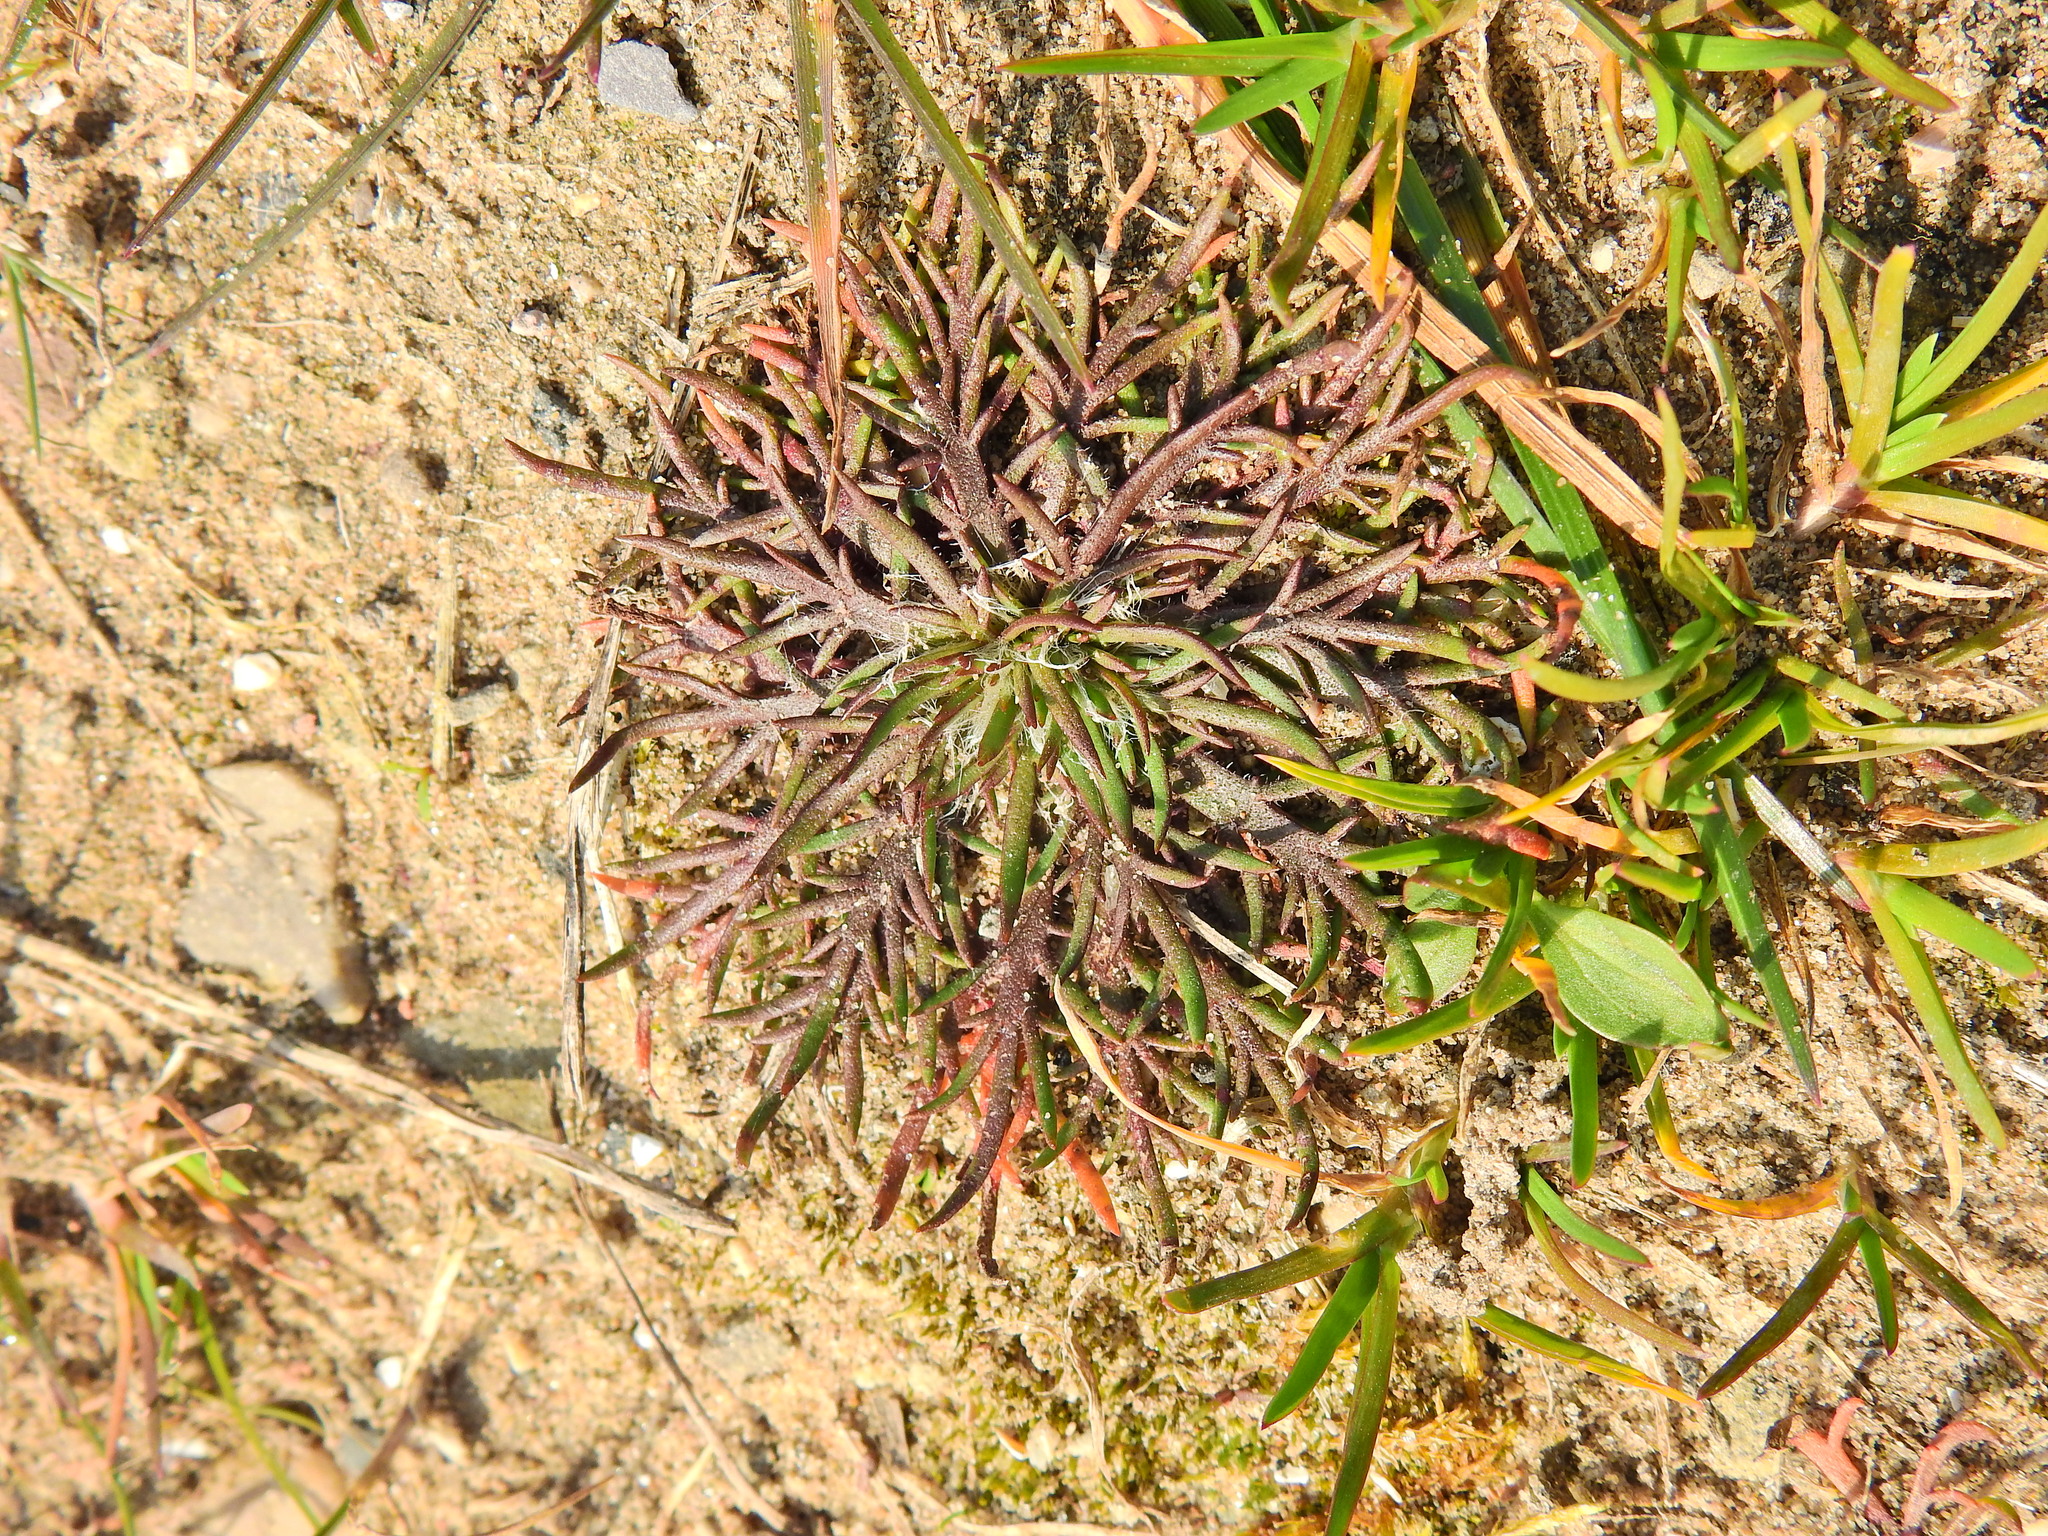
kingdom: Plantae
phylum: Tracheophyta
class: Magnoliopsida
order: Lamiales
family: Plantaginaceae
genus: Plantago
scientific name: Plantago coronopus
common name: Buck's-horn plantain
